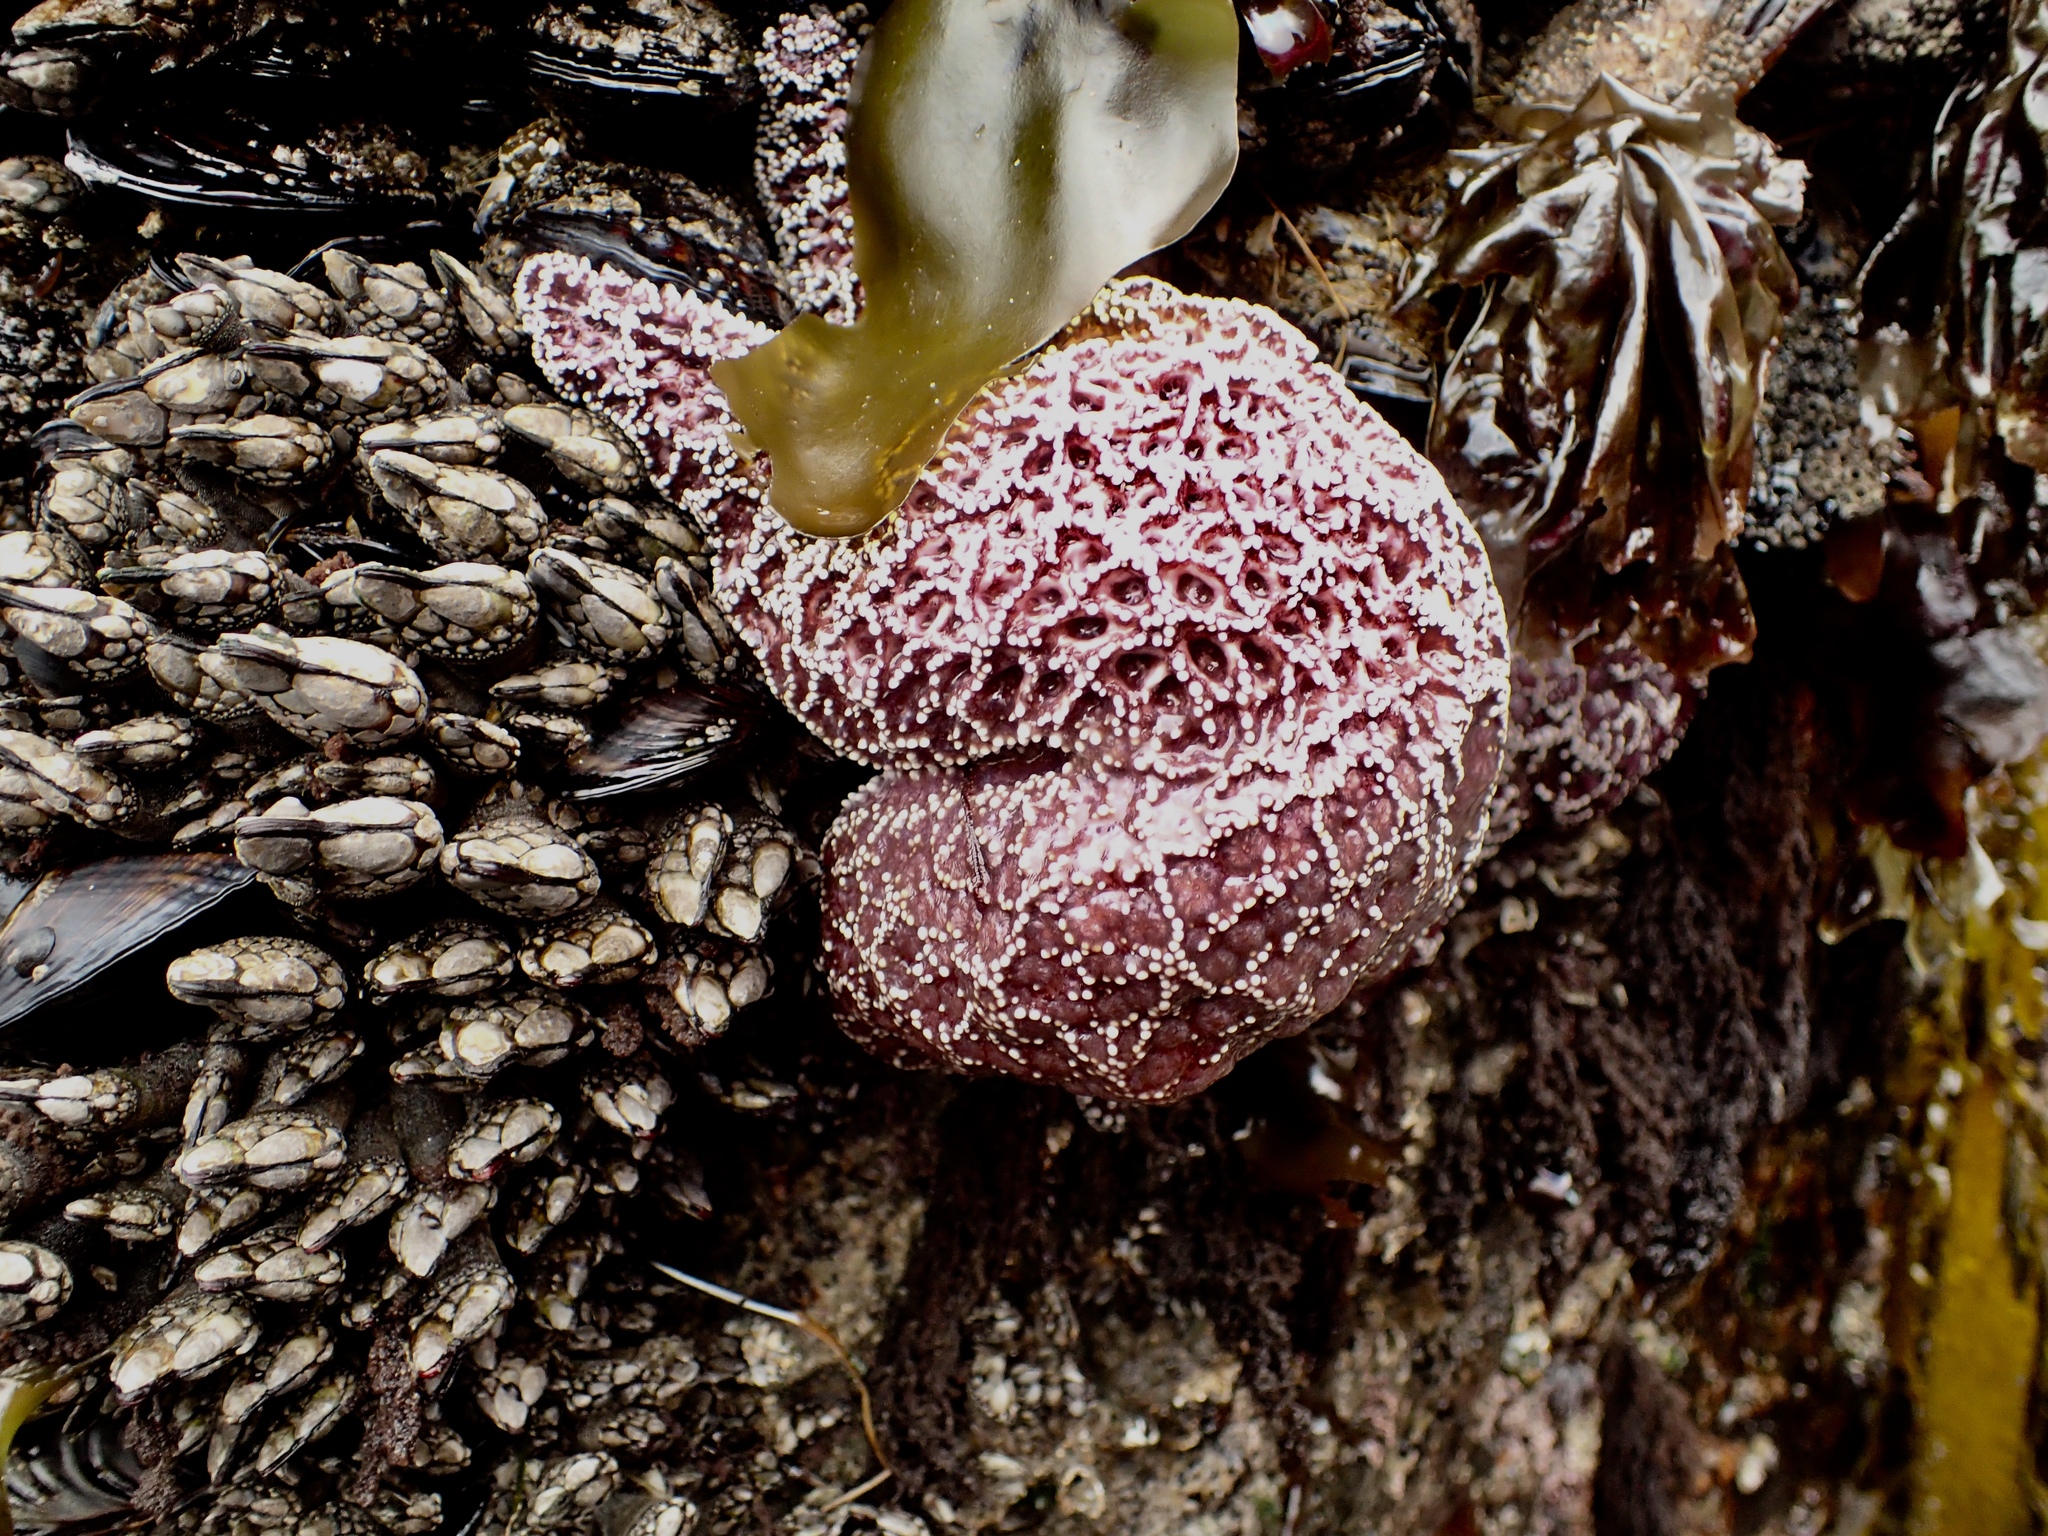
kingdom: Animalia
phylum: Echinodermata
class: Asteroidea
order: Forcipulatida
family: Asteriidae
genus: Pisaster
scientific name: Pisaster ochraceus
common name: Ochre stars
